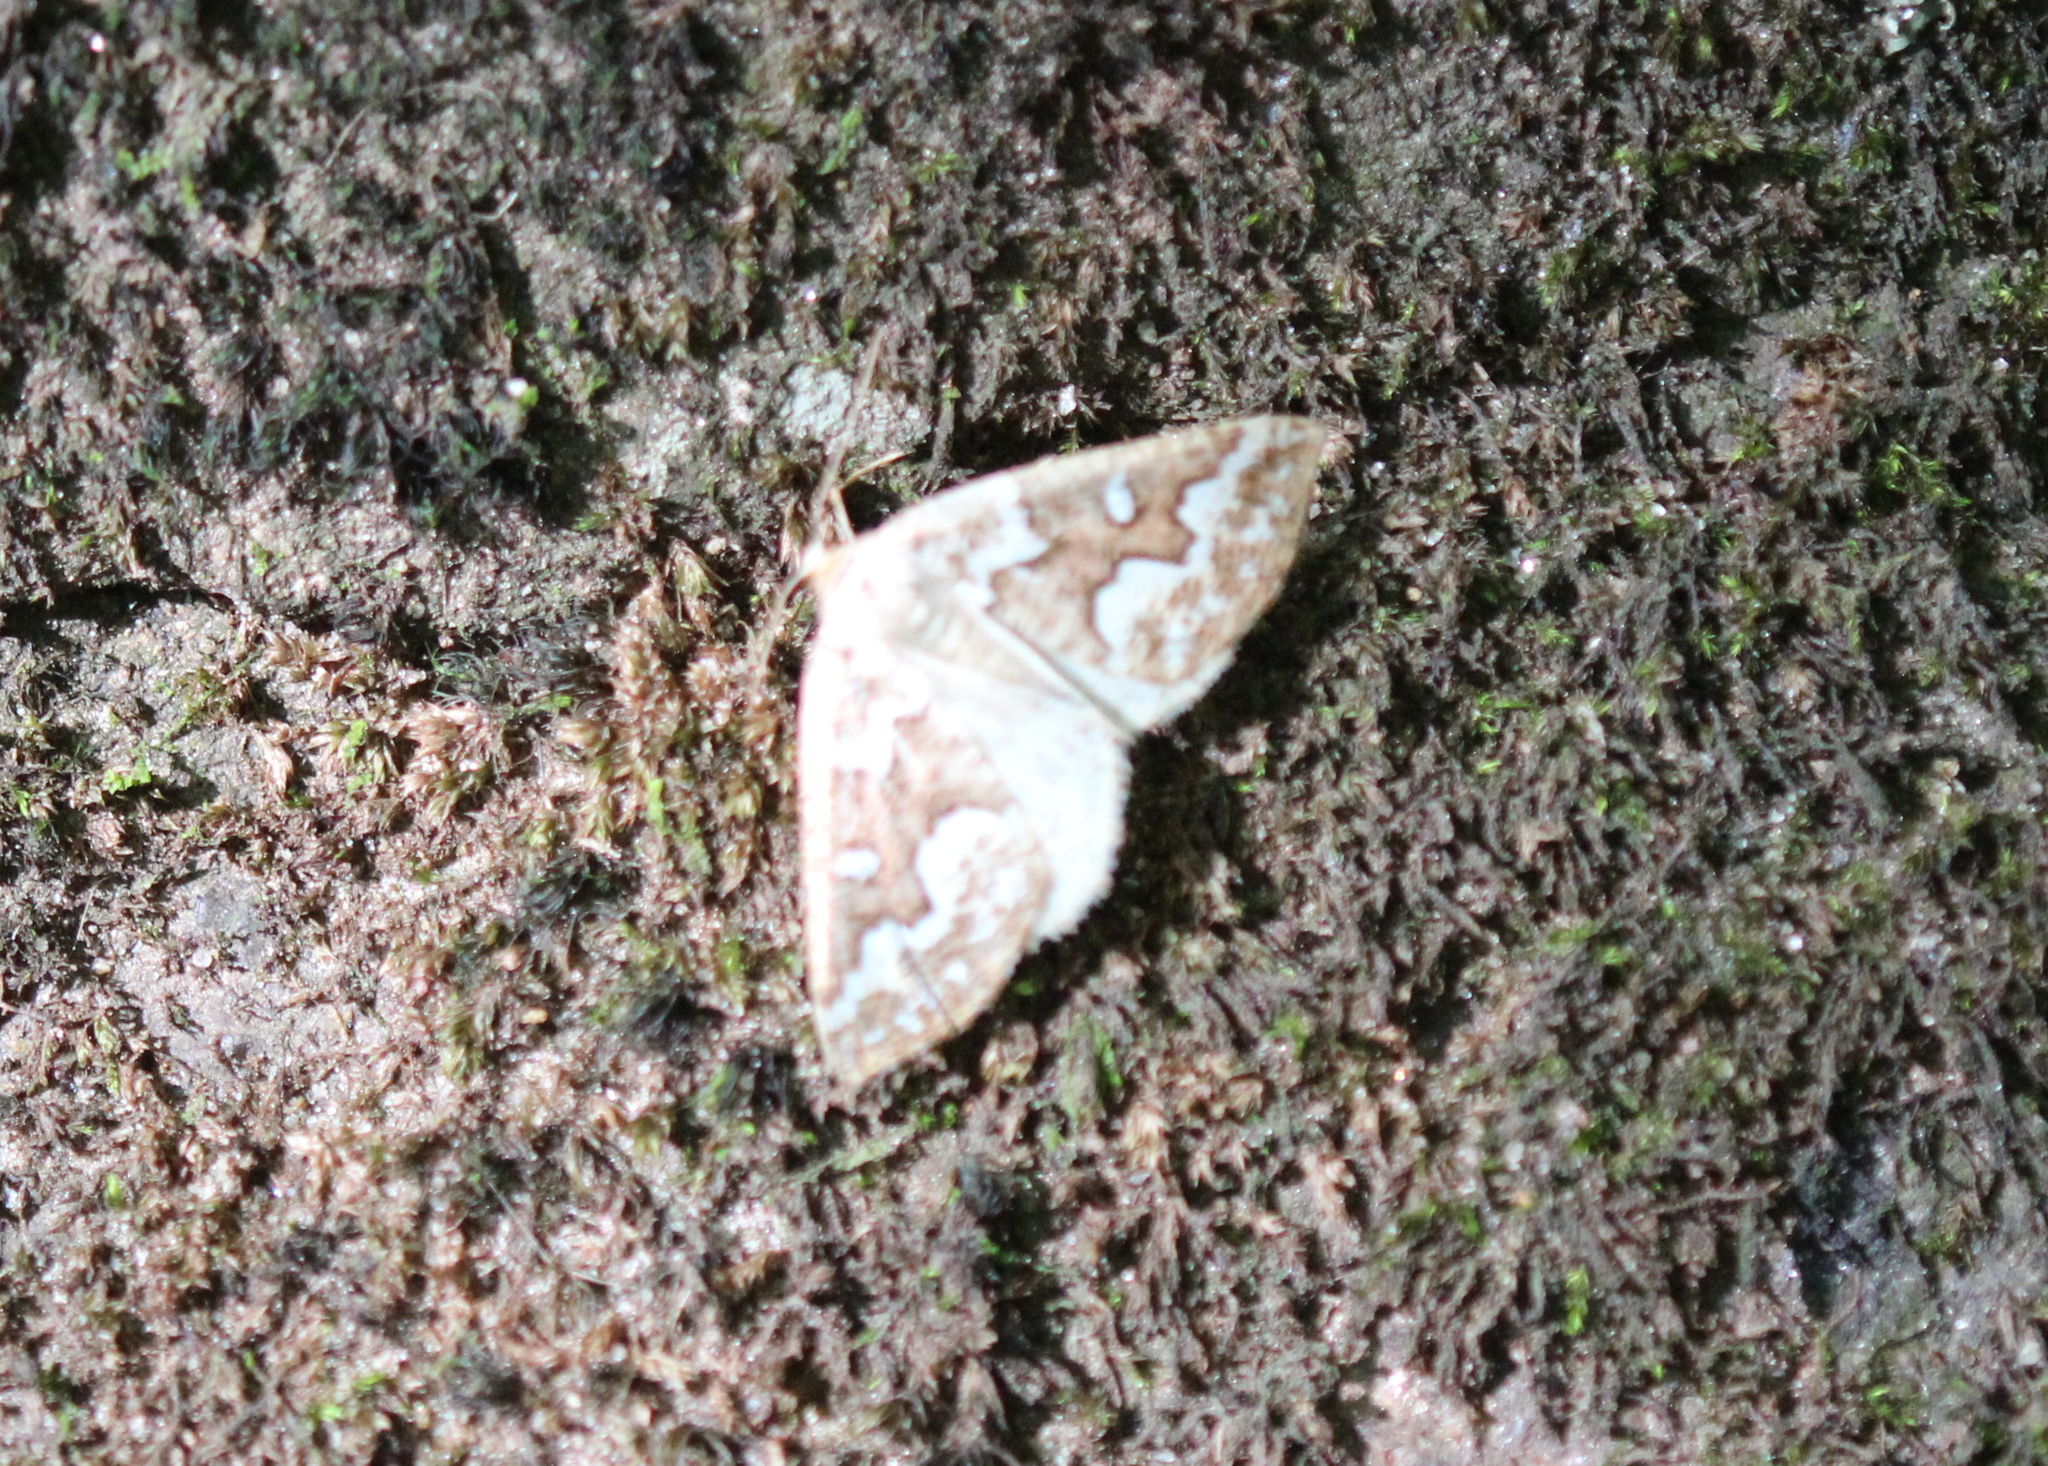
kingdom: Animalia
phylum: Arthropoda
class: Insecta
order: Lepidoptera
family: Geometridae
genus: Caripeta
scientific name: Caripeta divisata
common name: Gray spruce looper
